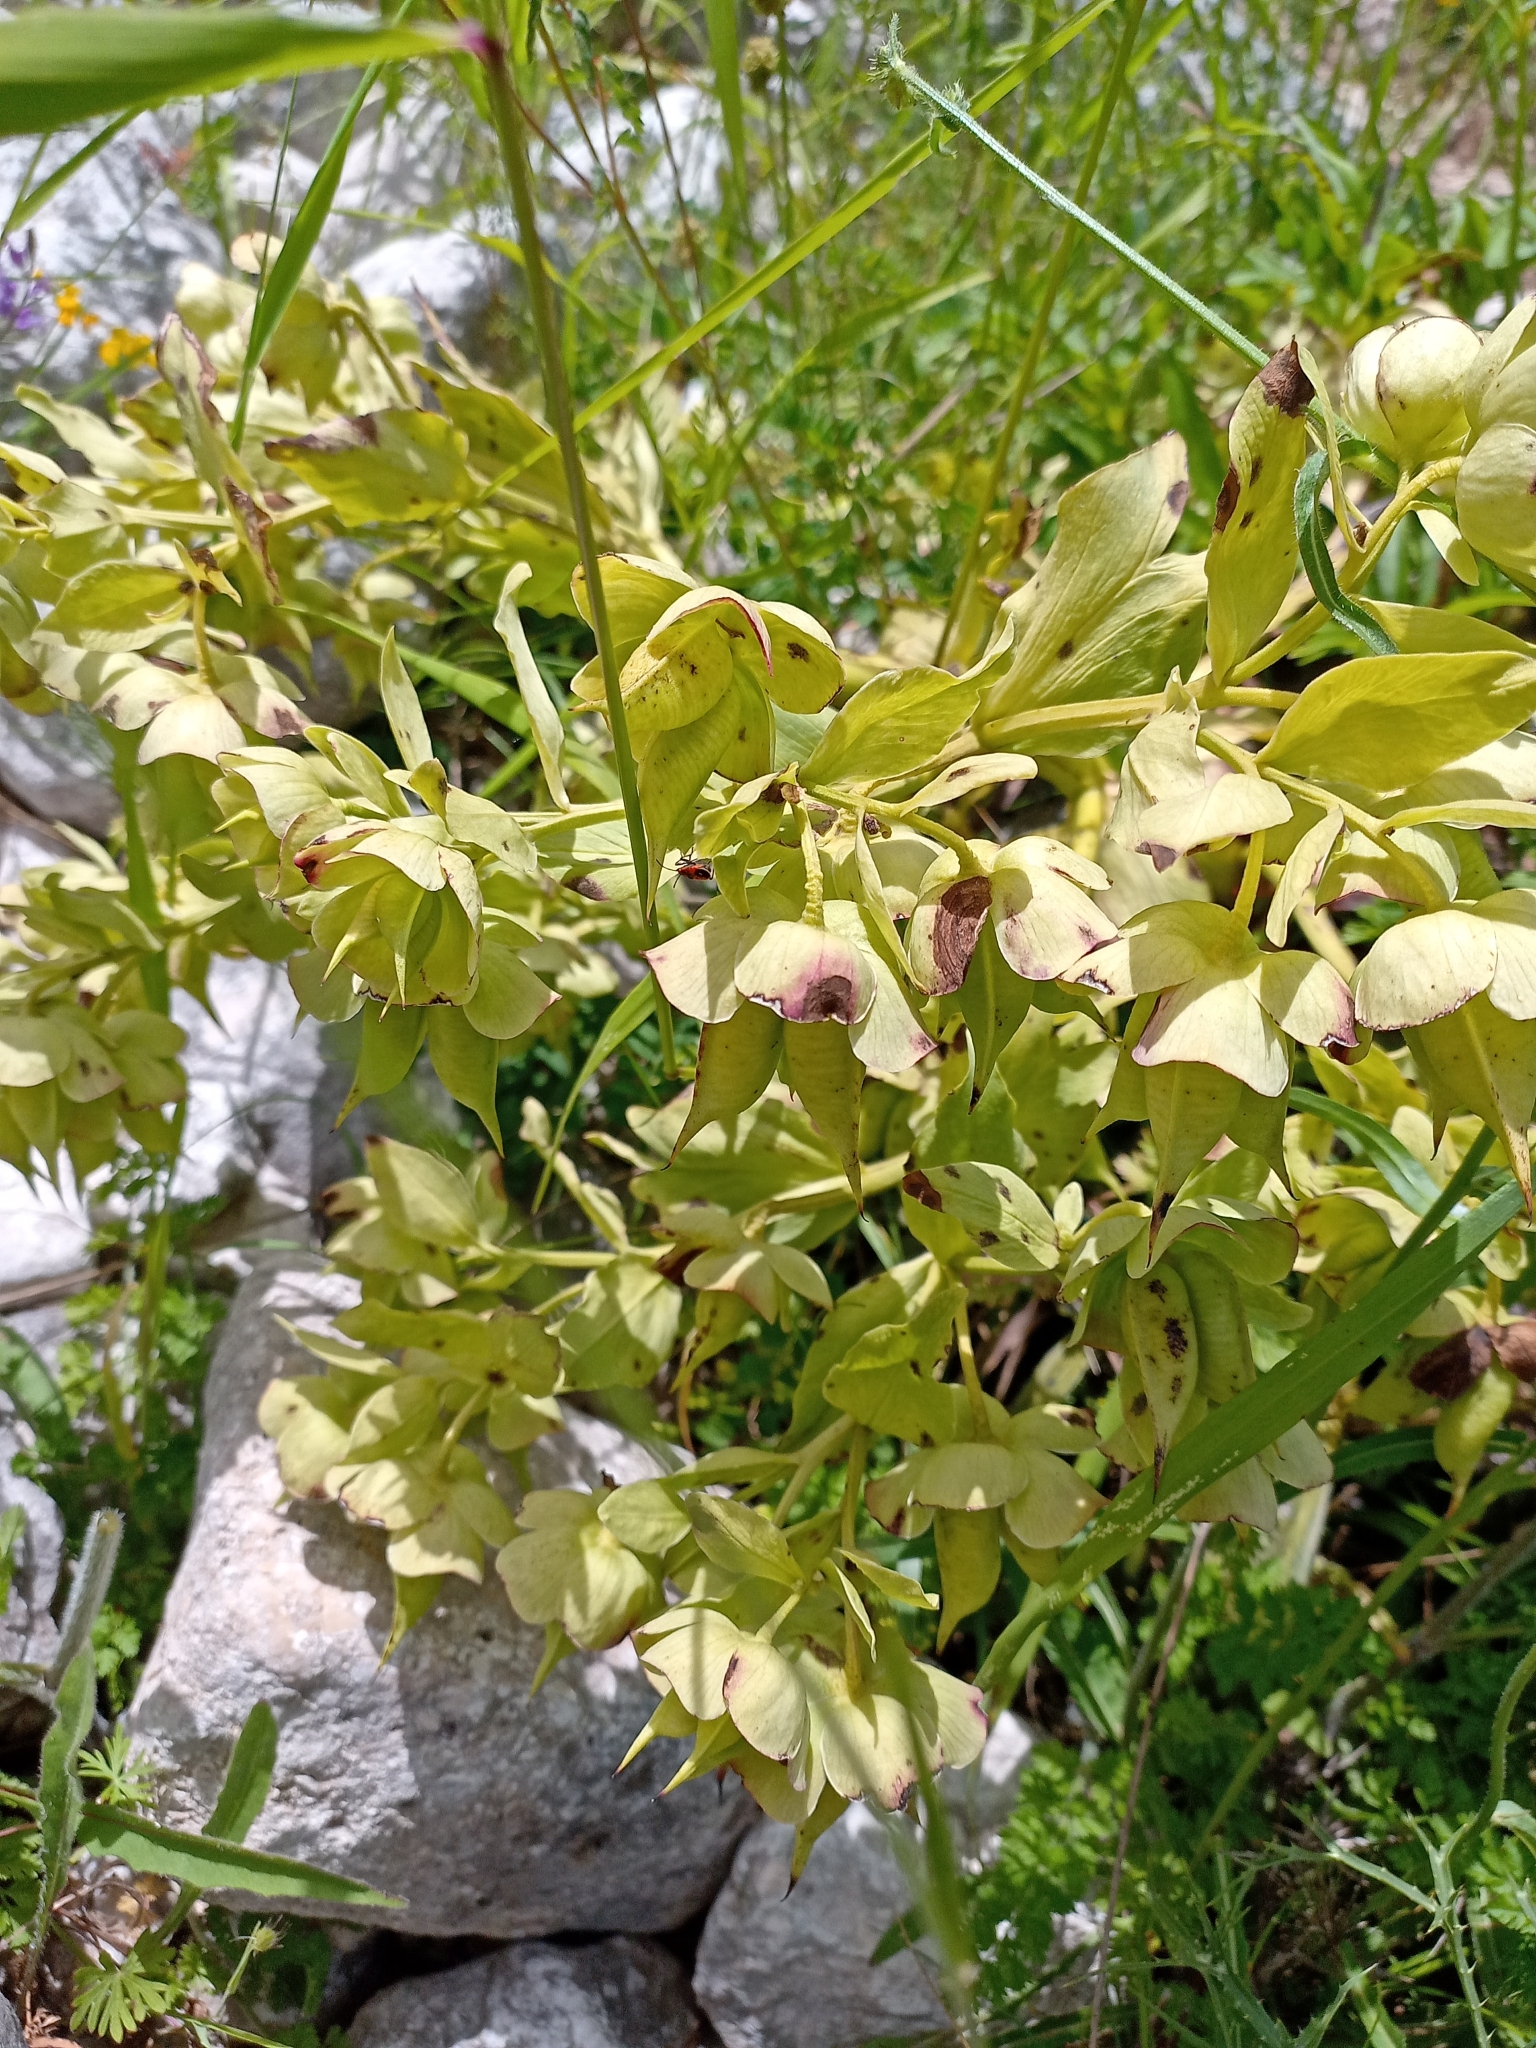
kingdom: Plantae
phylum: Tracheophyta
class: Magnoliopsida
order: Ranunculales
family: Ranunculaceae
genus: Helleborus
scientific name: Helleborus foetidus
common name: Stinking hellebore
